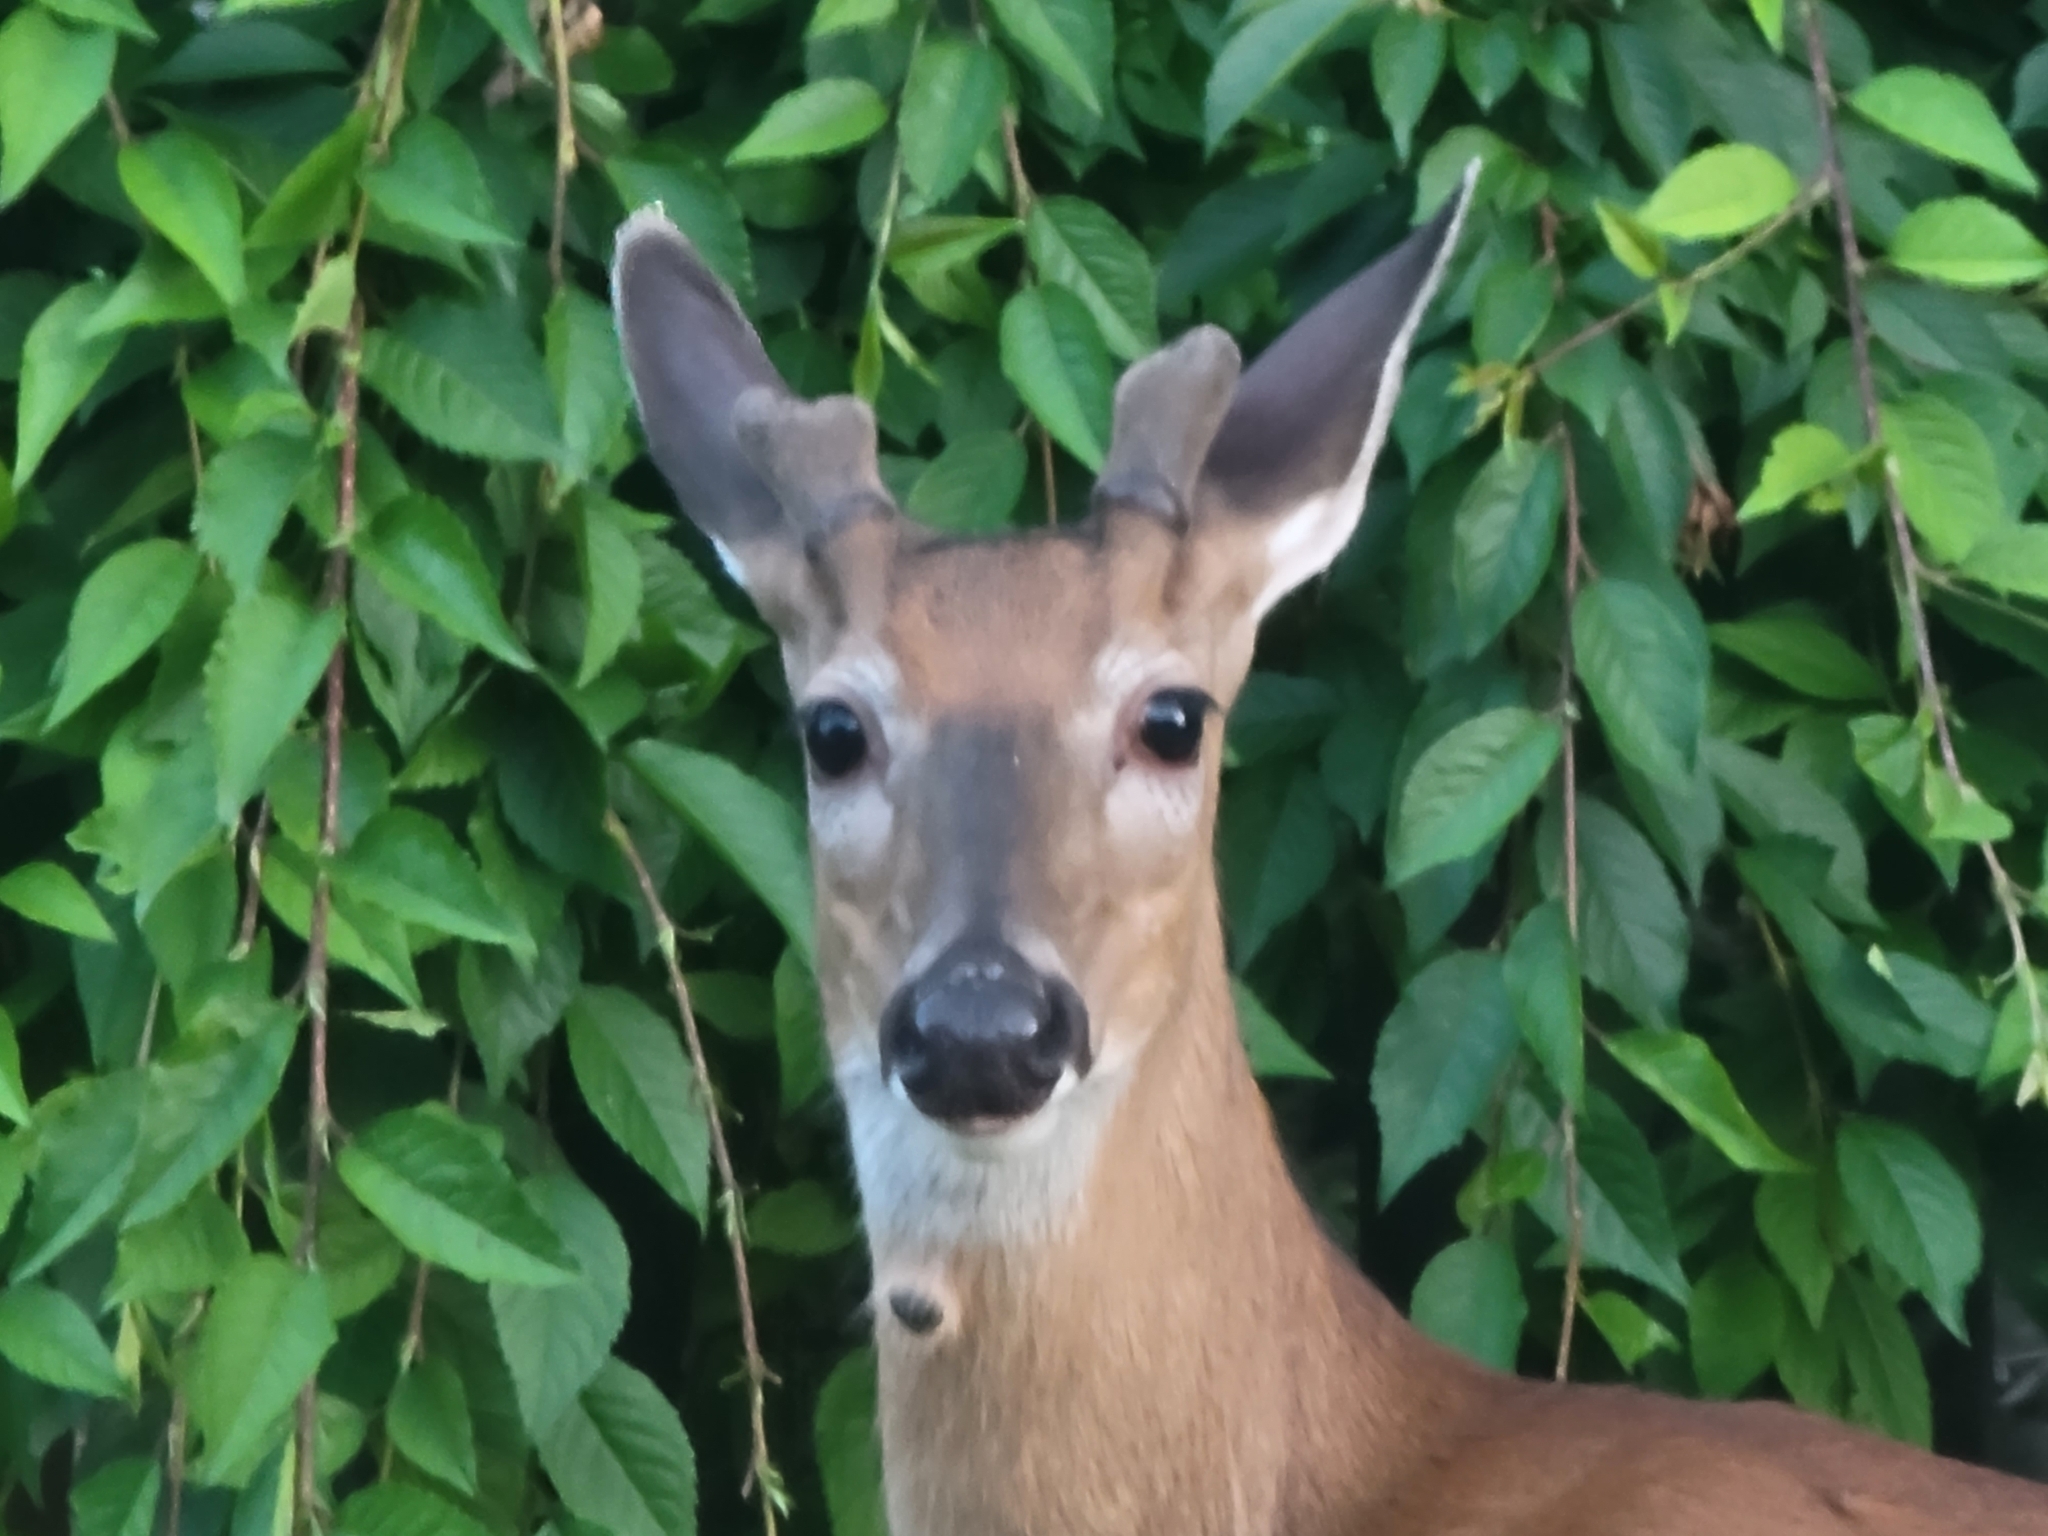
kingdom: Animalia
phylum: Chordata
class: Mammalia
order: Artiodactyla
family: Cervidae
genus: Odocoileus
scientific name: Odocoileus virginianus
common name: White-tailed deer
